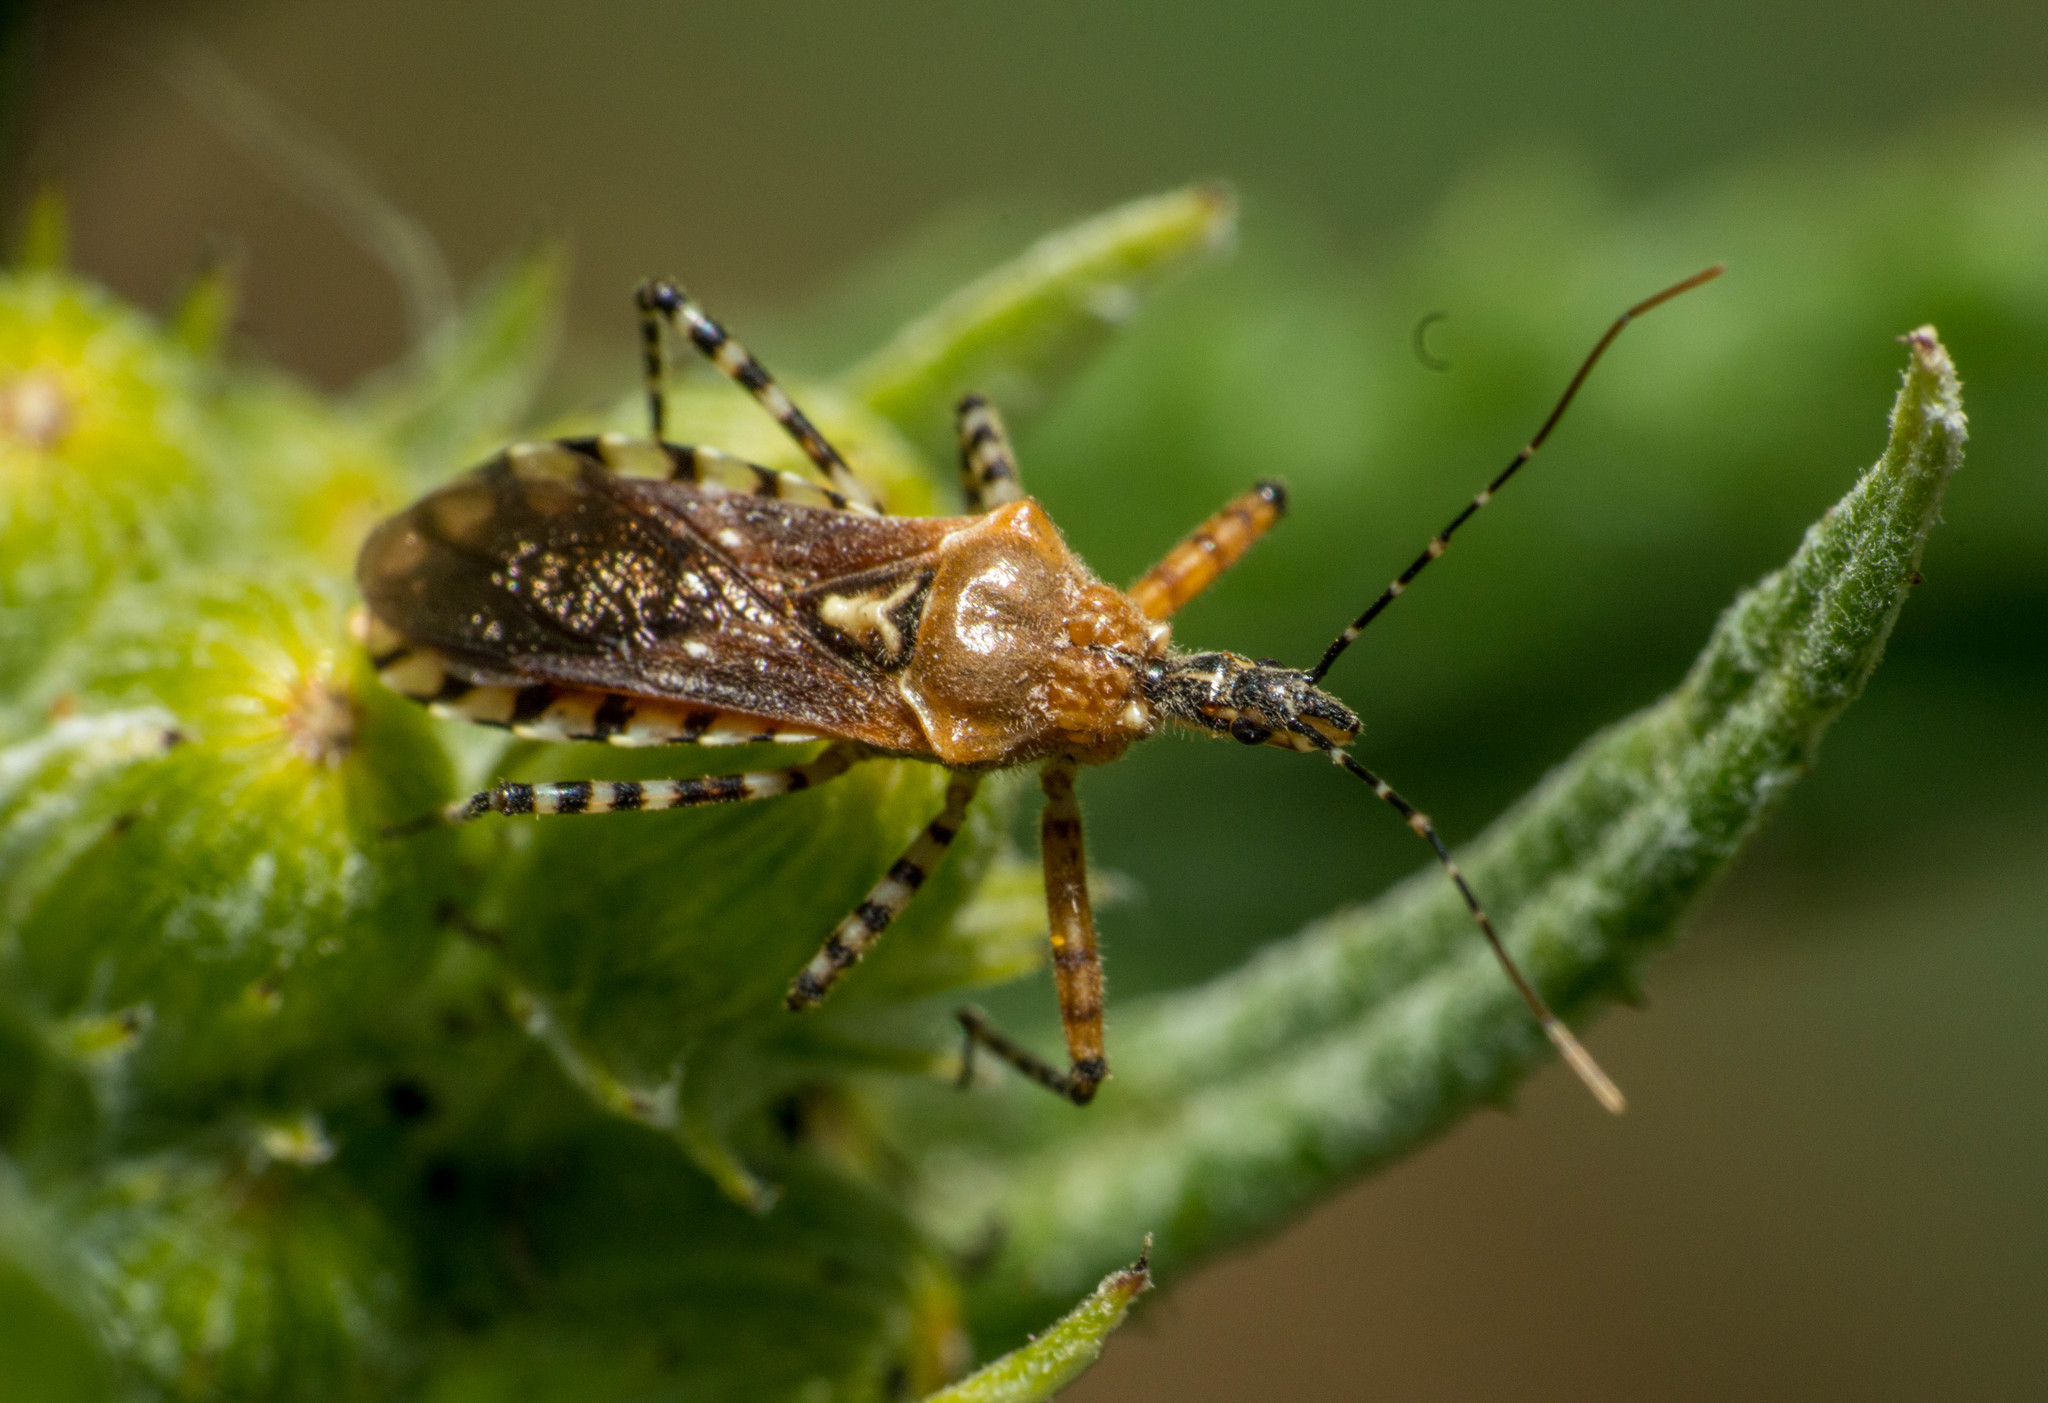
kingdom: Animalia
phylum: Arthropoda
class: Insecta
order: Hemiptera
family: Reduviidae
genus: Cosmoclopius
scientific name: Cosmoclopius nigroannulatus
